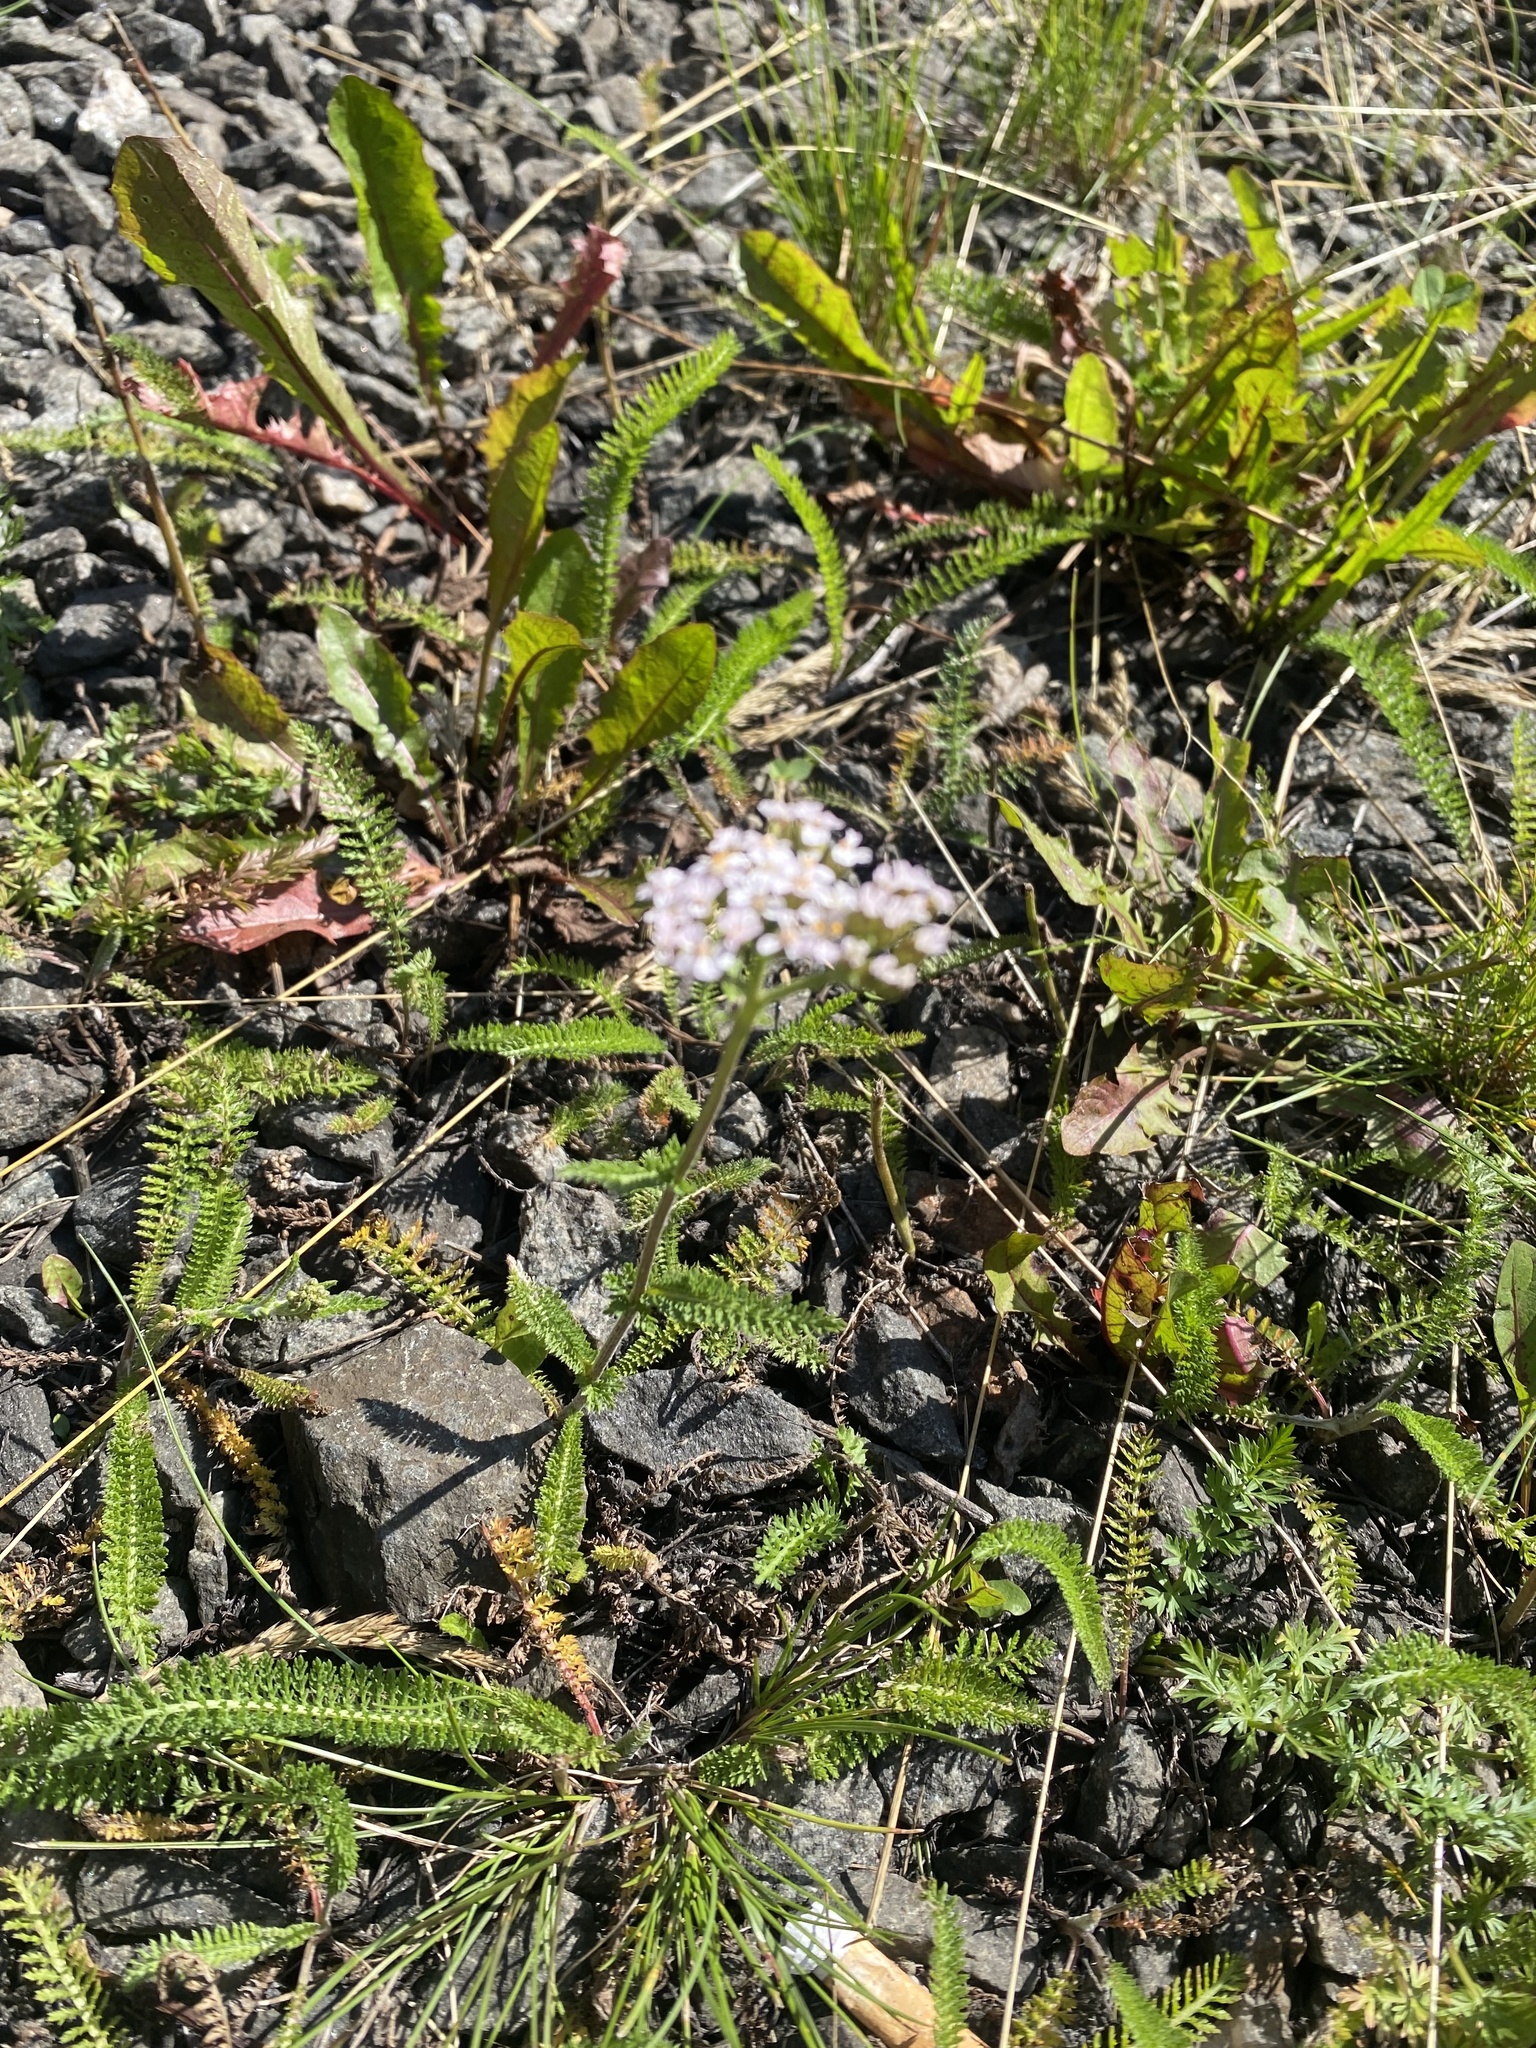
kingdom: Plantae
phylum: Tracheophyta
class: Magnoliopsida
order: Asterales
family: Asteraceae
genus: Achillea
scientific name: Achillea asiatica
